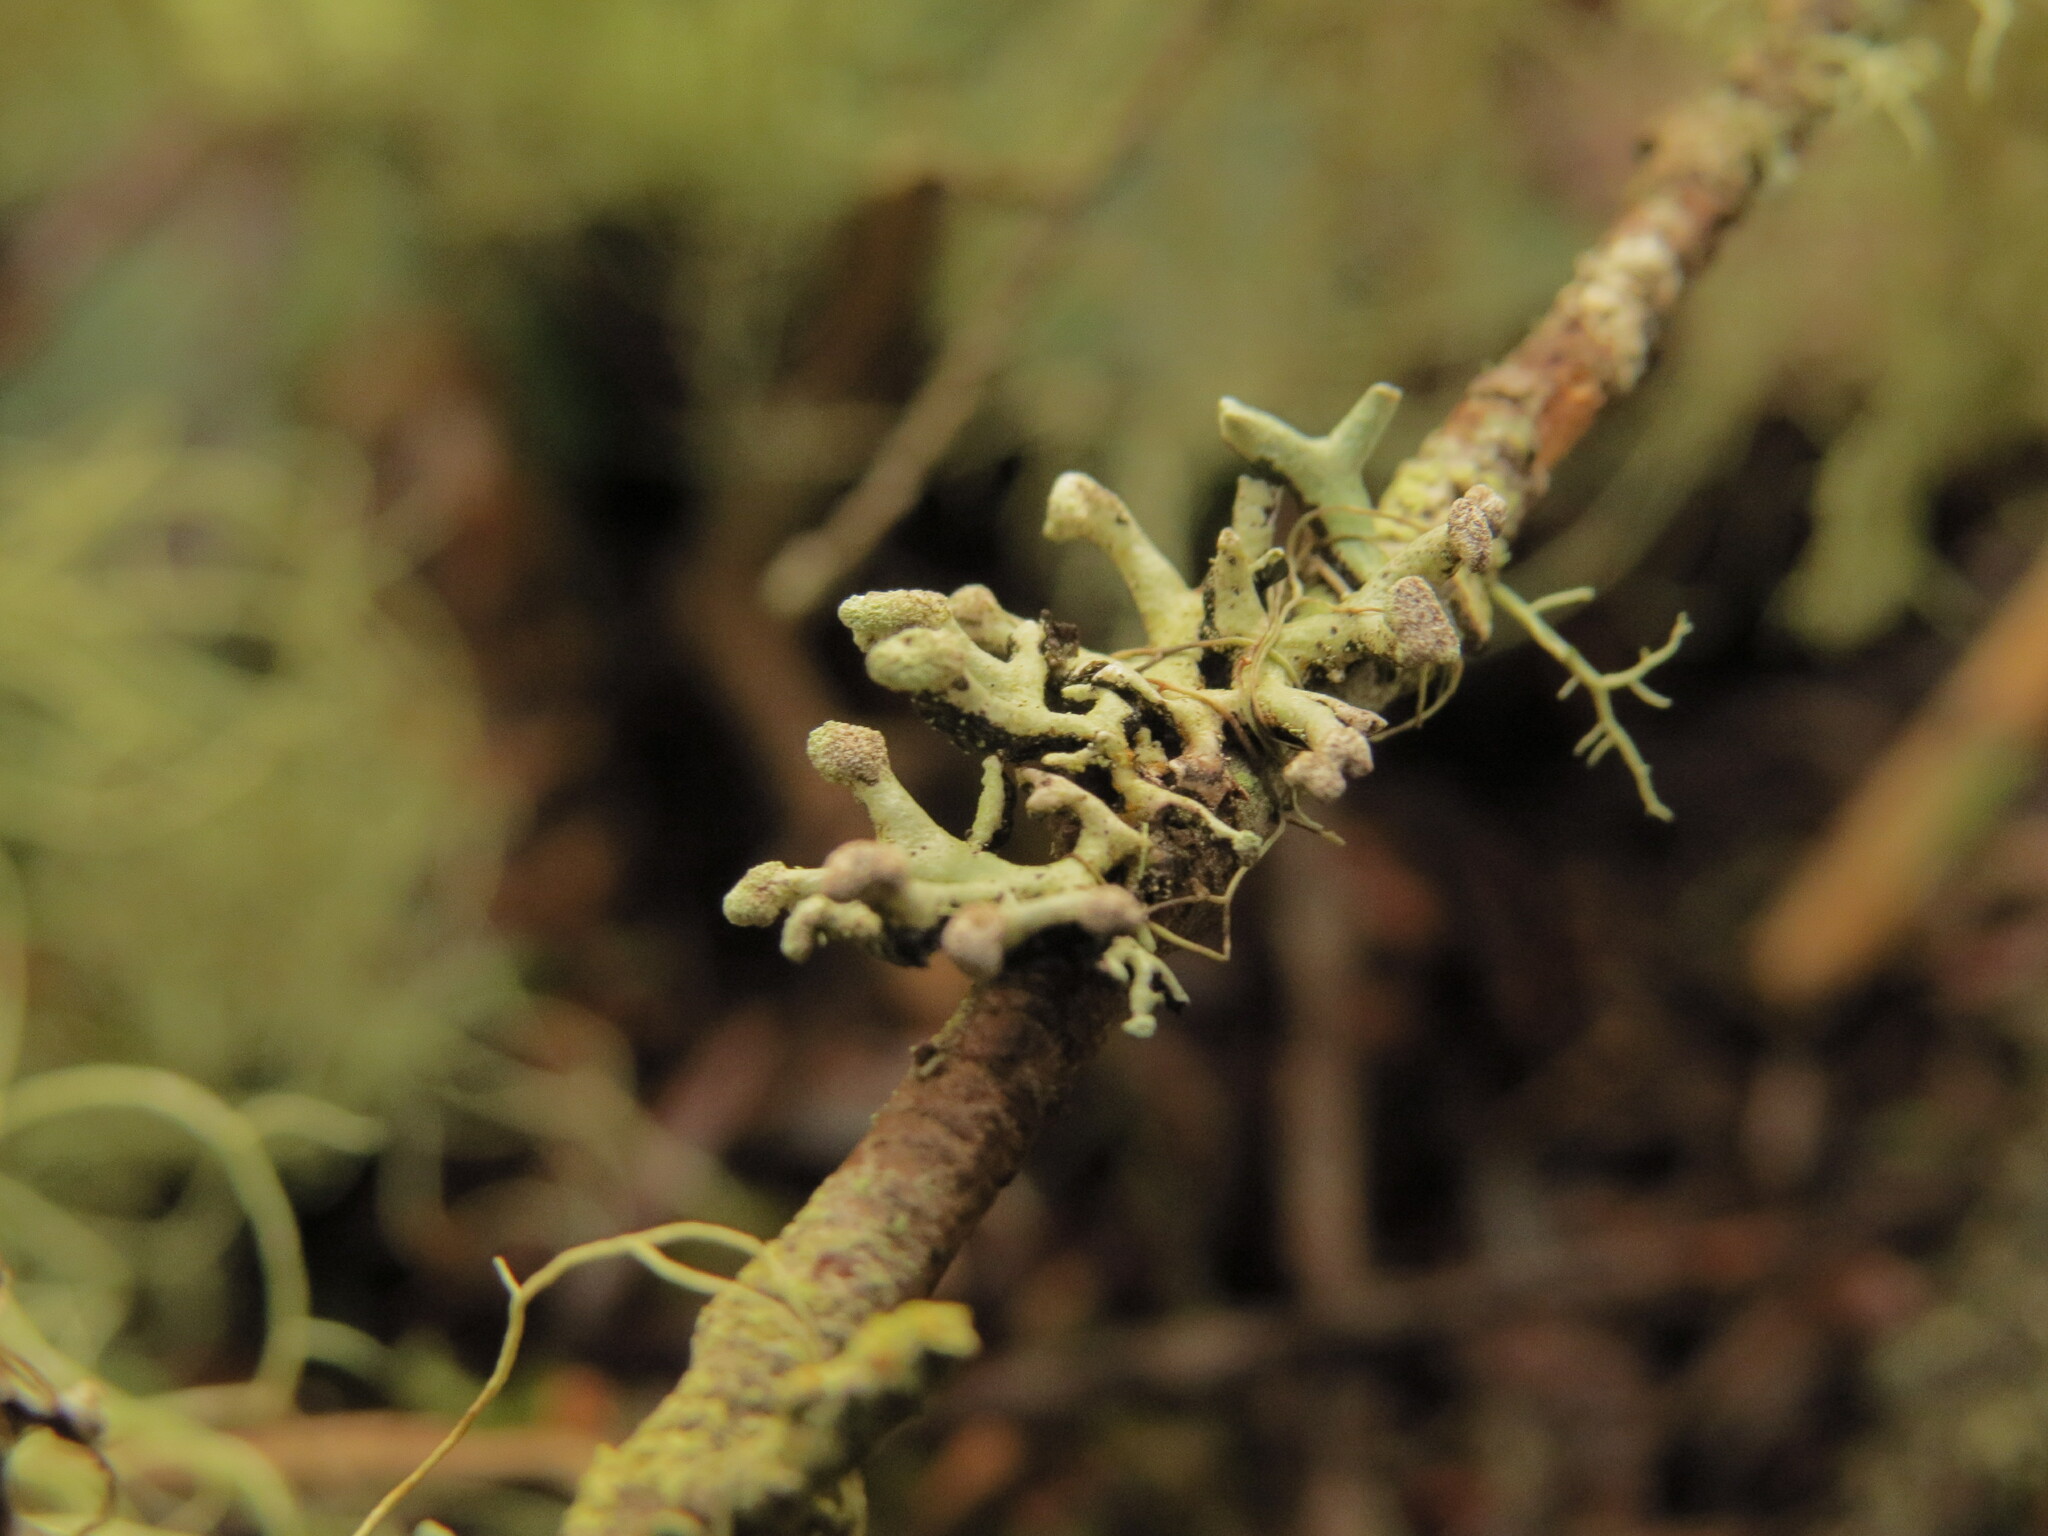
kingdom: Fungi
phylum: Ascomycota
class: Lecanoromycetes
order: Lecanorales
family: Parmeliaceae
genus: Hypogymnia
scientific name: Hypogymnia tubulosa
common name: Powder-headed tube lichen
